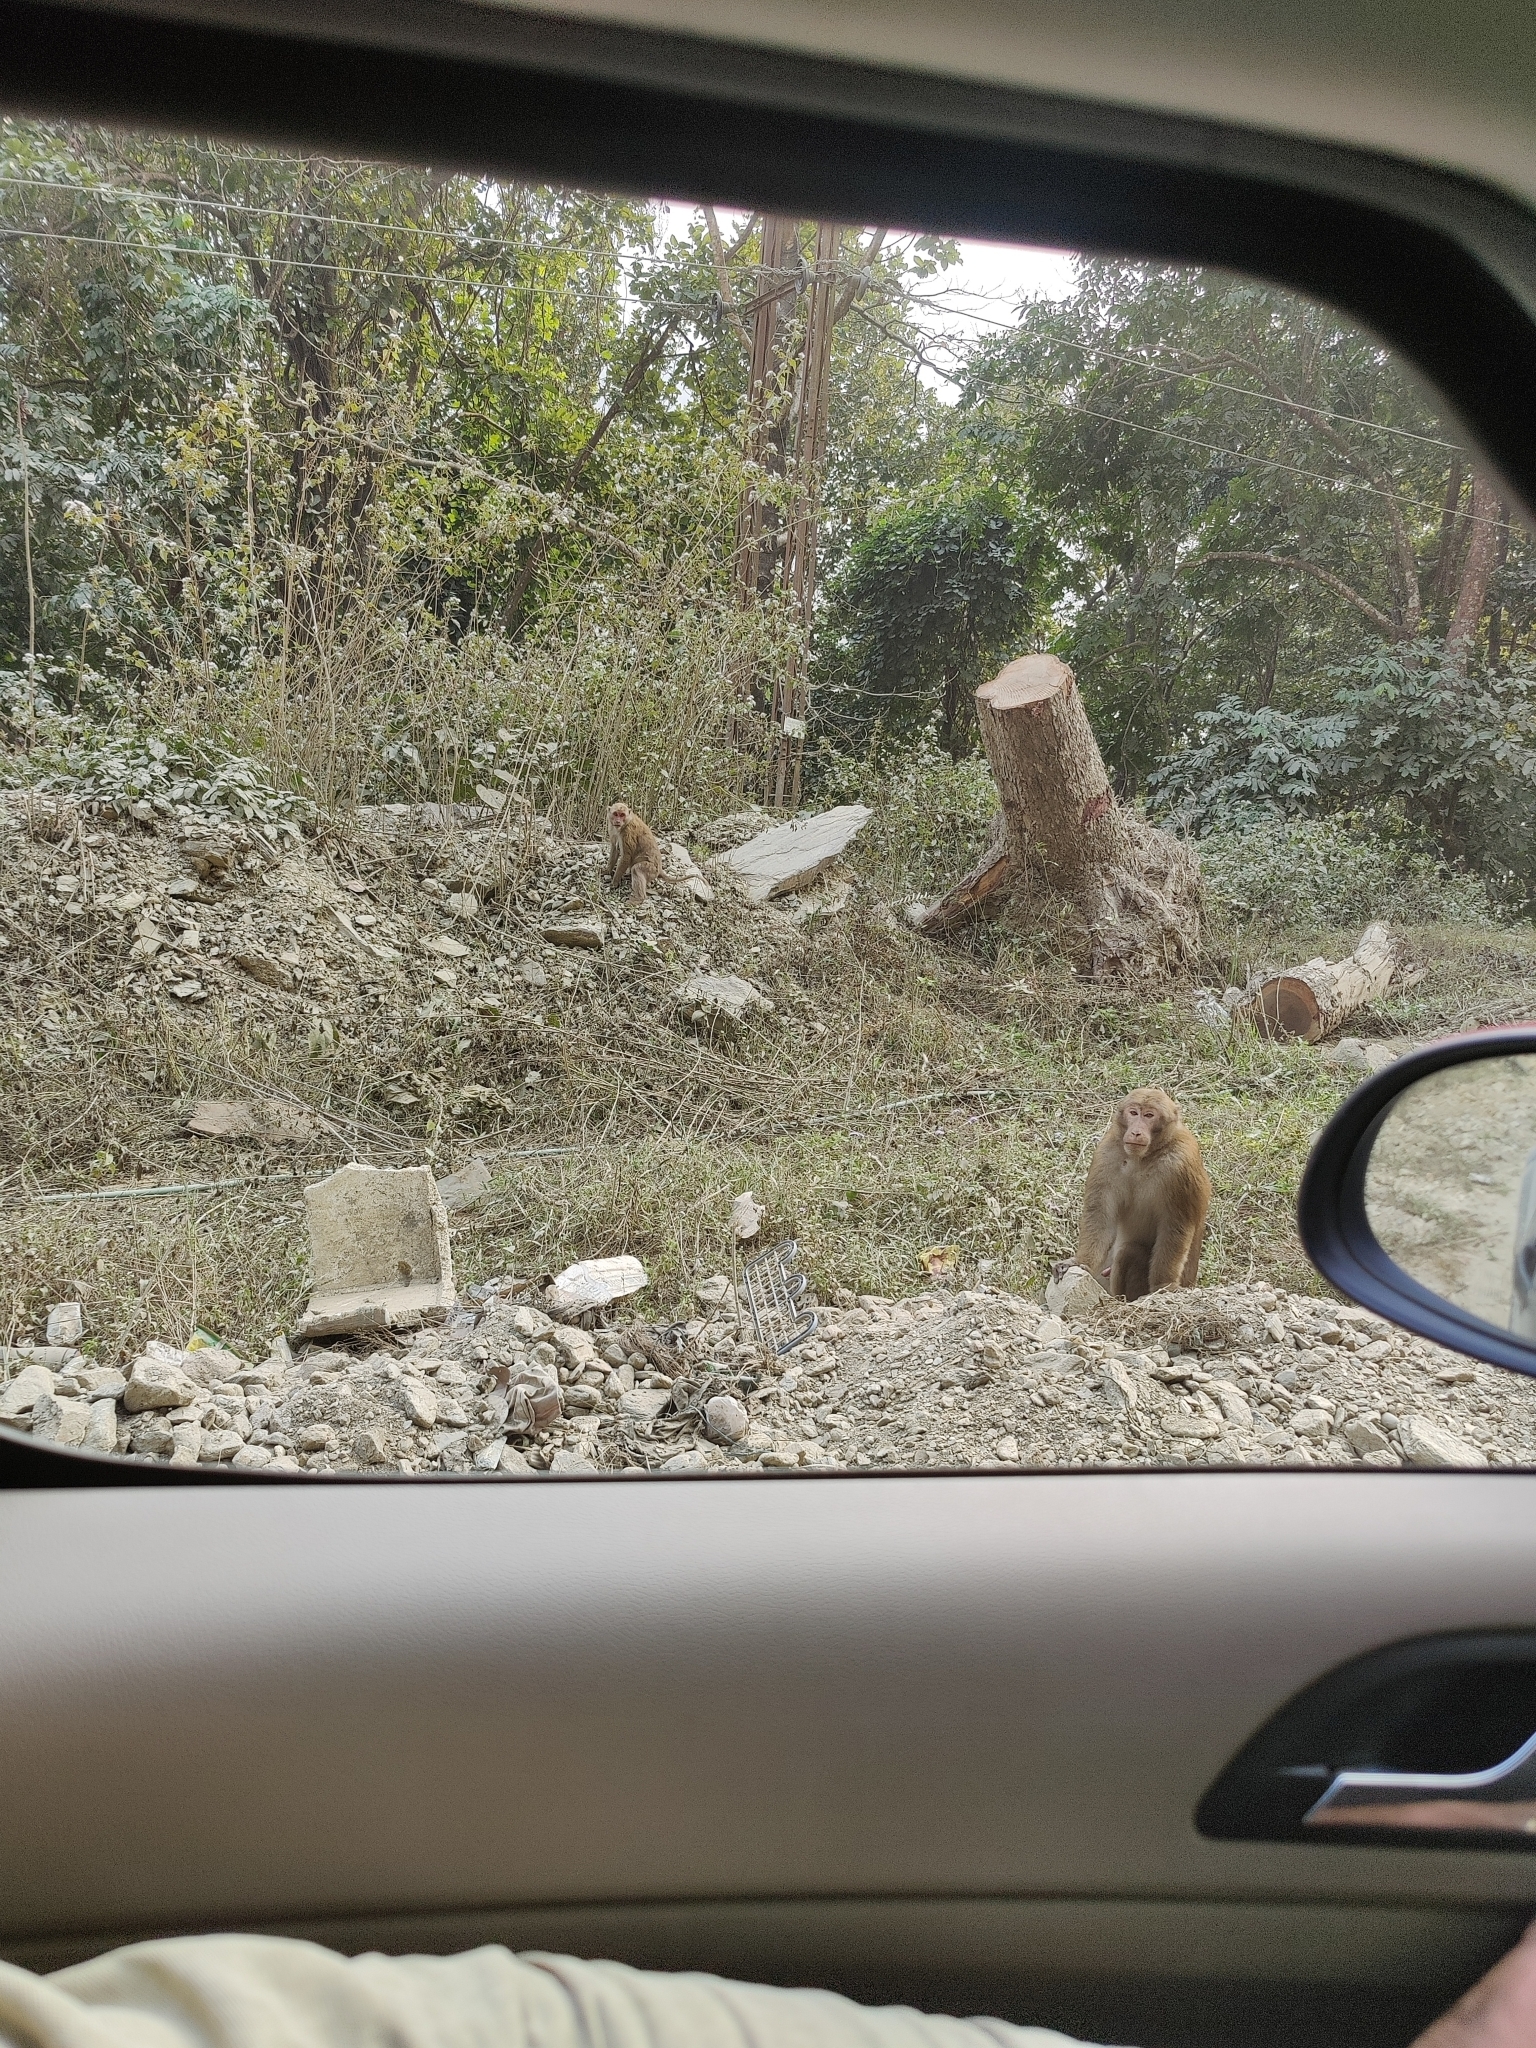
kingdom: Animalia
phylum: Chordata
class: Mammalia
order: Primates
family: Cercopithecidae
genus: Macaca
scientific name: Macaca assamensis
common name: Assam macaque
